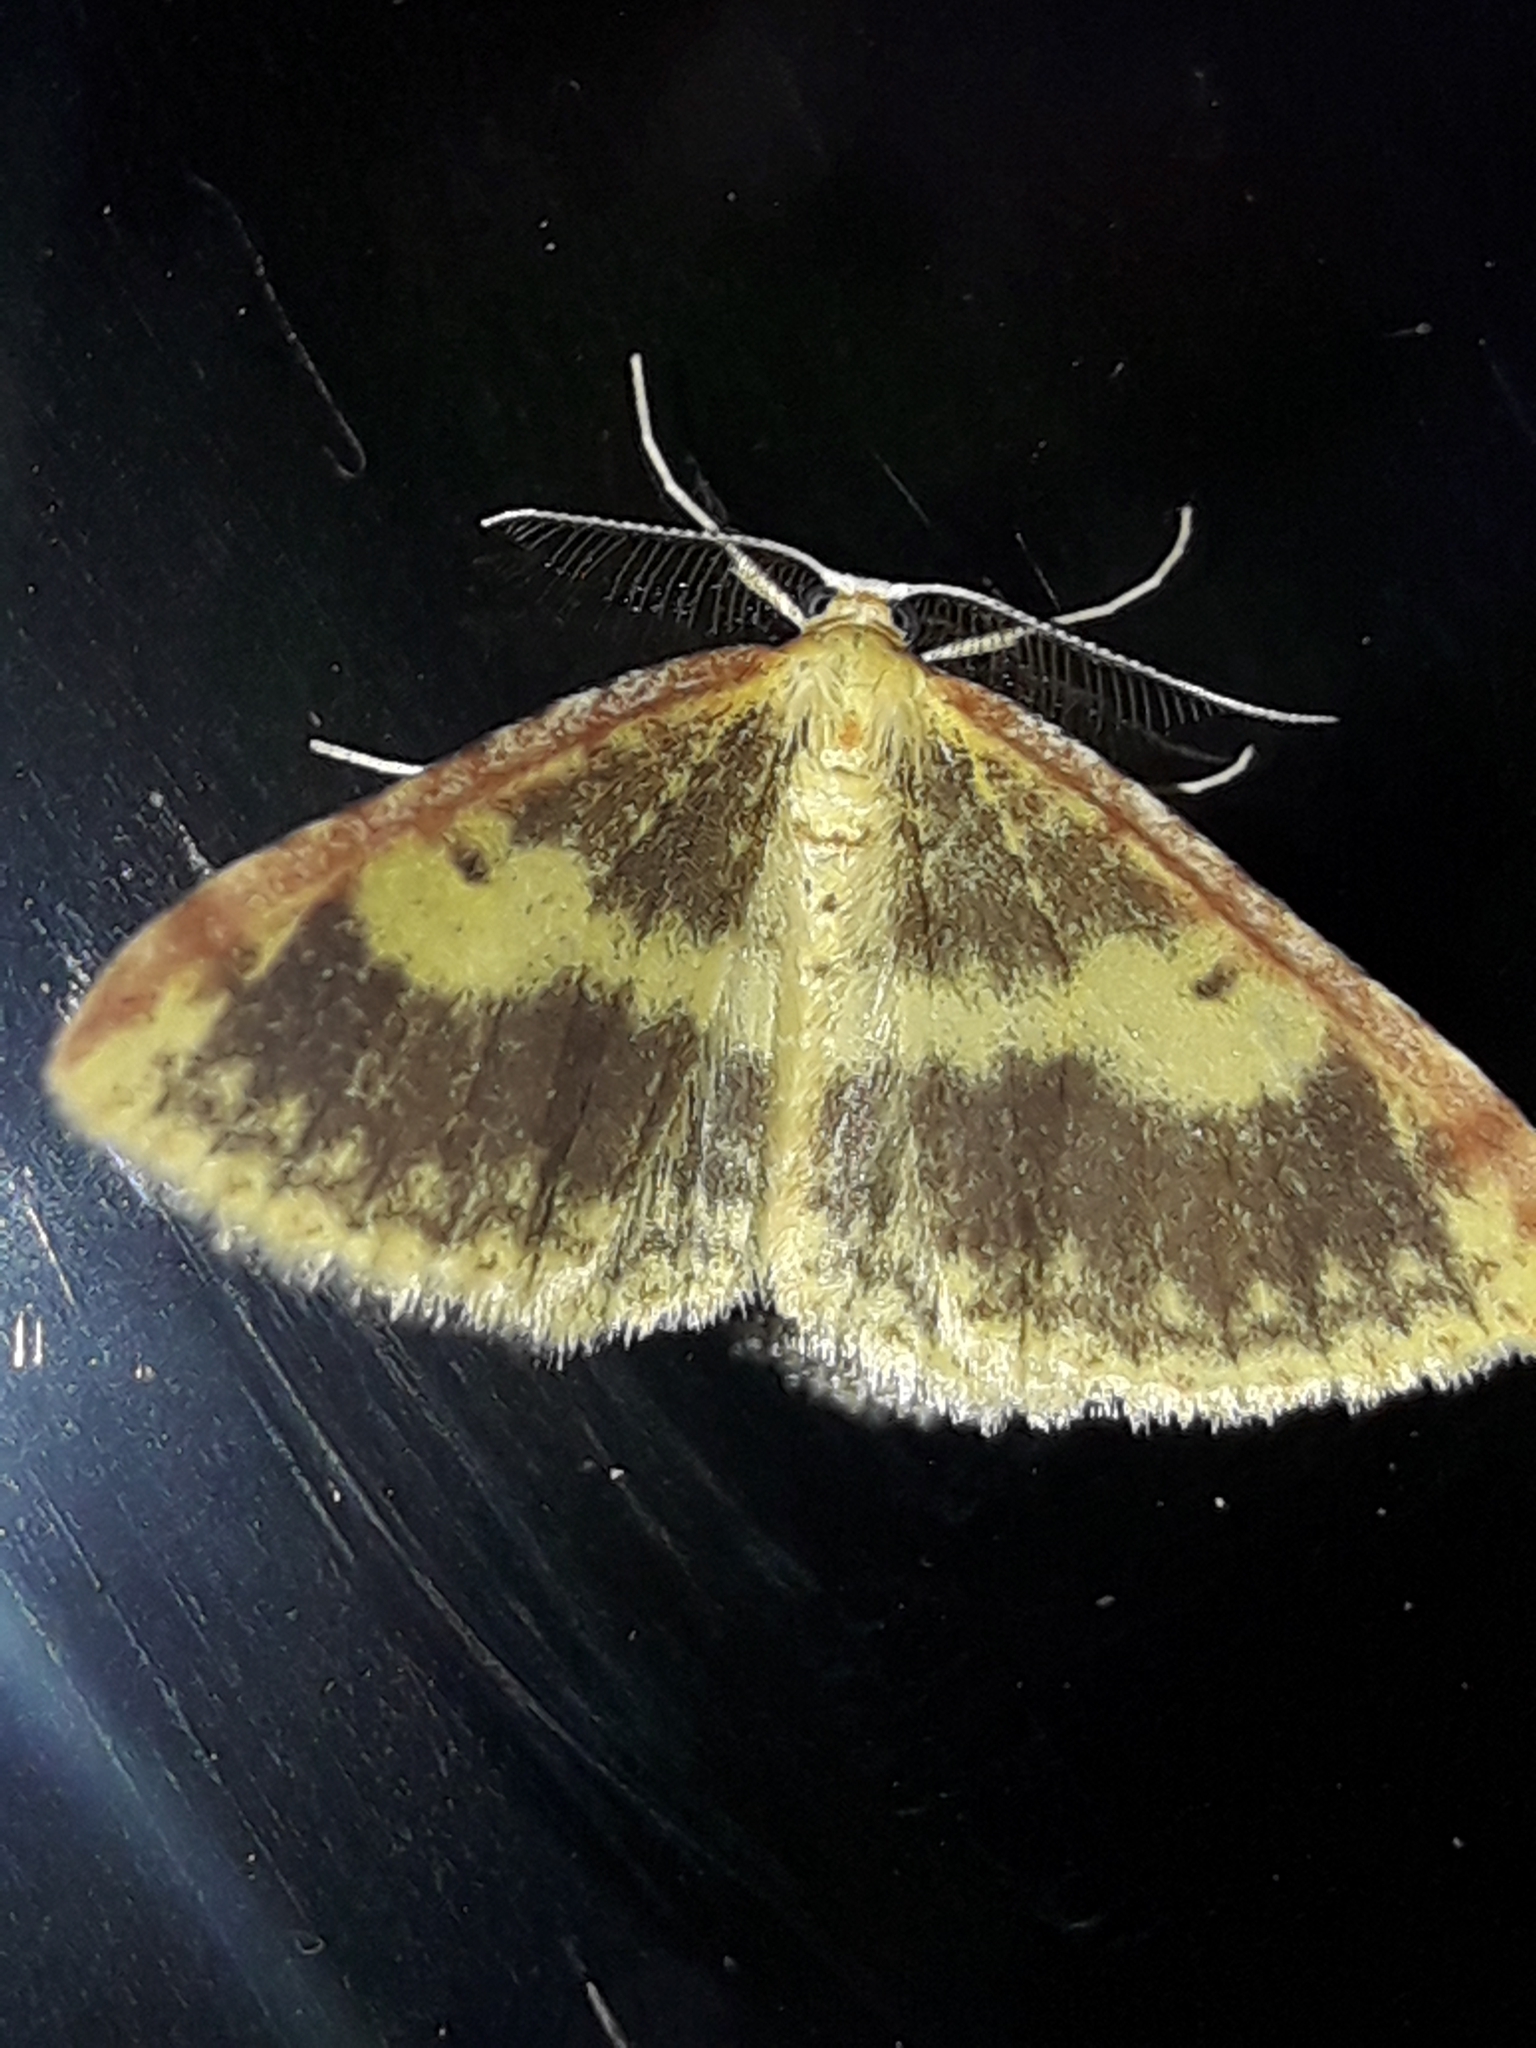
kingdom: Animalia
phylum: Arthropoda
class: Insecta
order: Lepidoptera
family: Geometridae
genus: Epiphryne
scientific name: Epiphryne undosata
